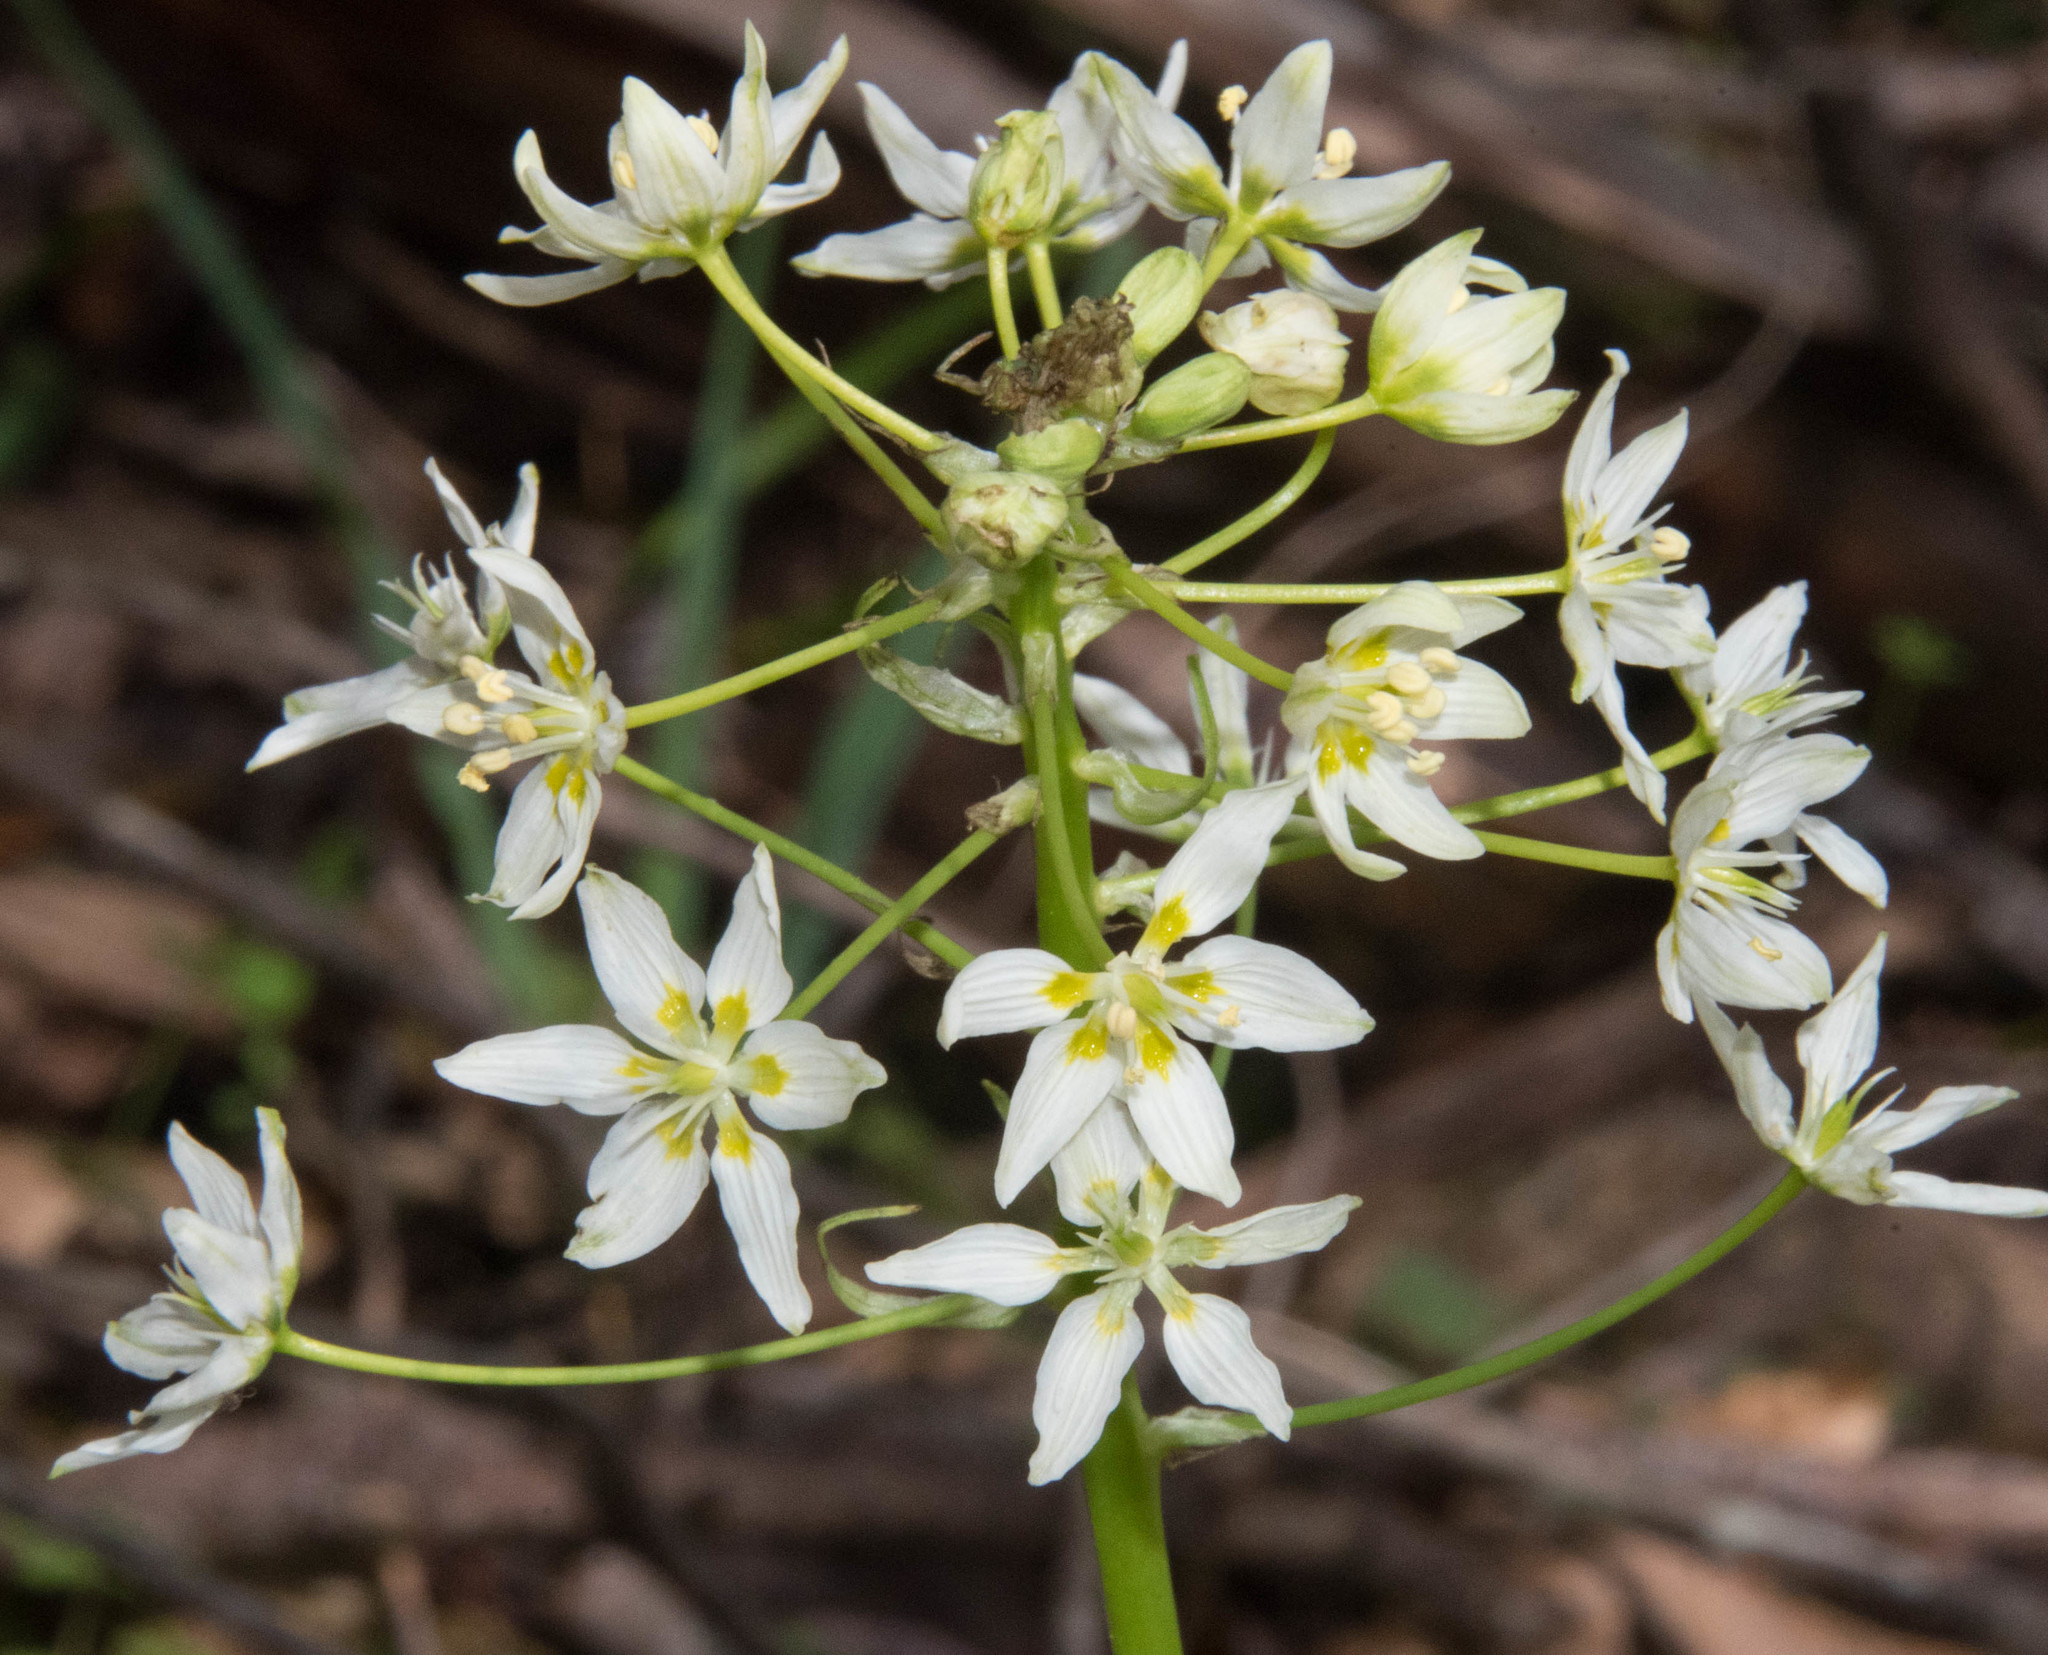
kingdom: Plantae
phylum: Tracheophyta
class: Liliopsida
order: Liliales
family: Melanthiaceae
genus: Toxicoscordion
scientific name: Toxicoscordion fremontii
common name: Fremont's death camas
